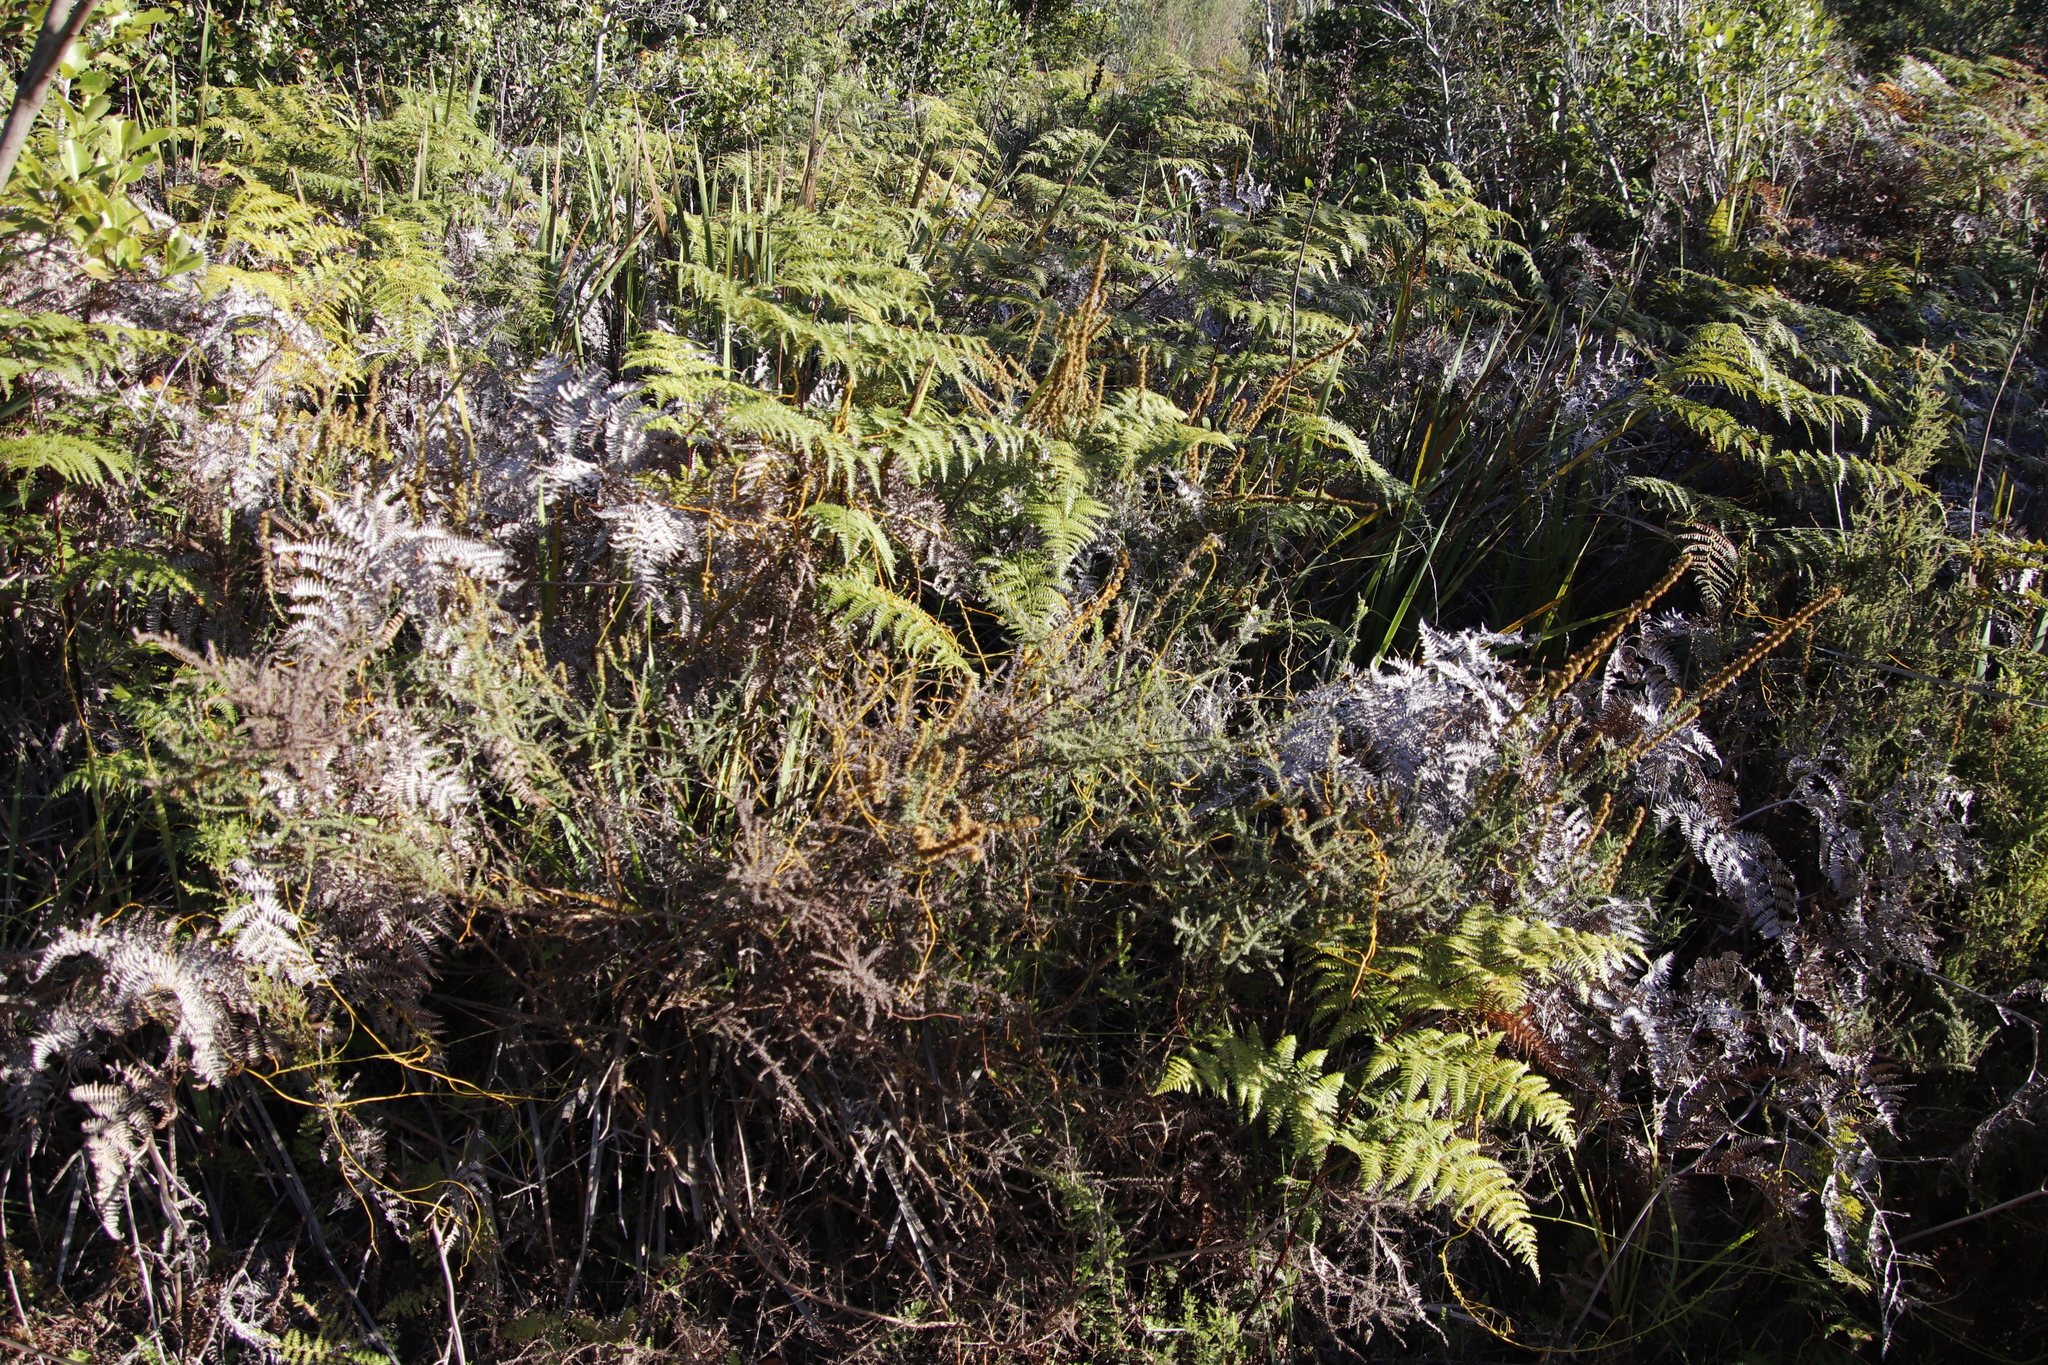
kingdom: Plantae
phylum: Tracheophyta
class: Magnoliopsida
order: Asterales
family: Asteraceae
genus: Seriphium
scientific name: Seriphium cinereum
